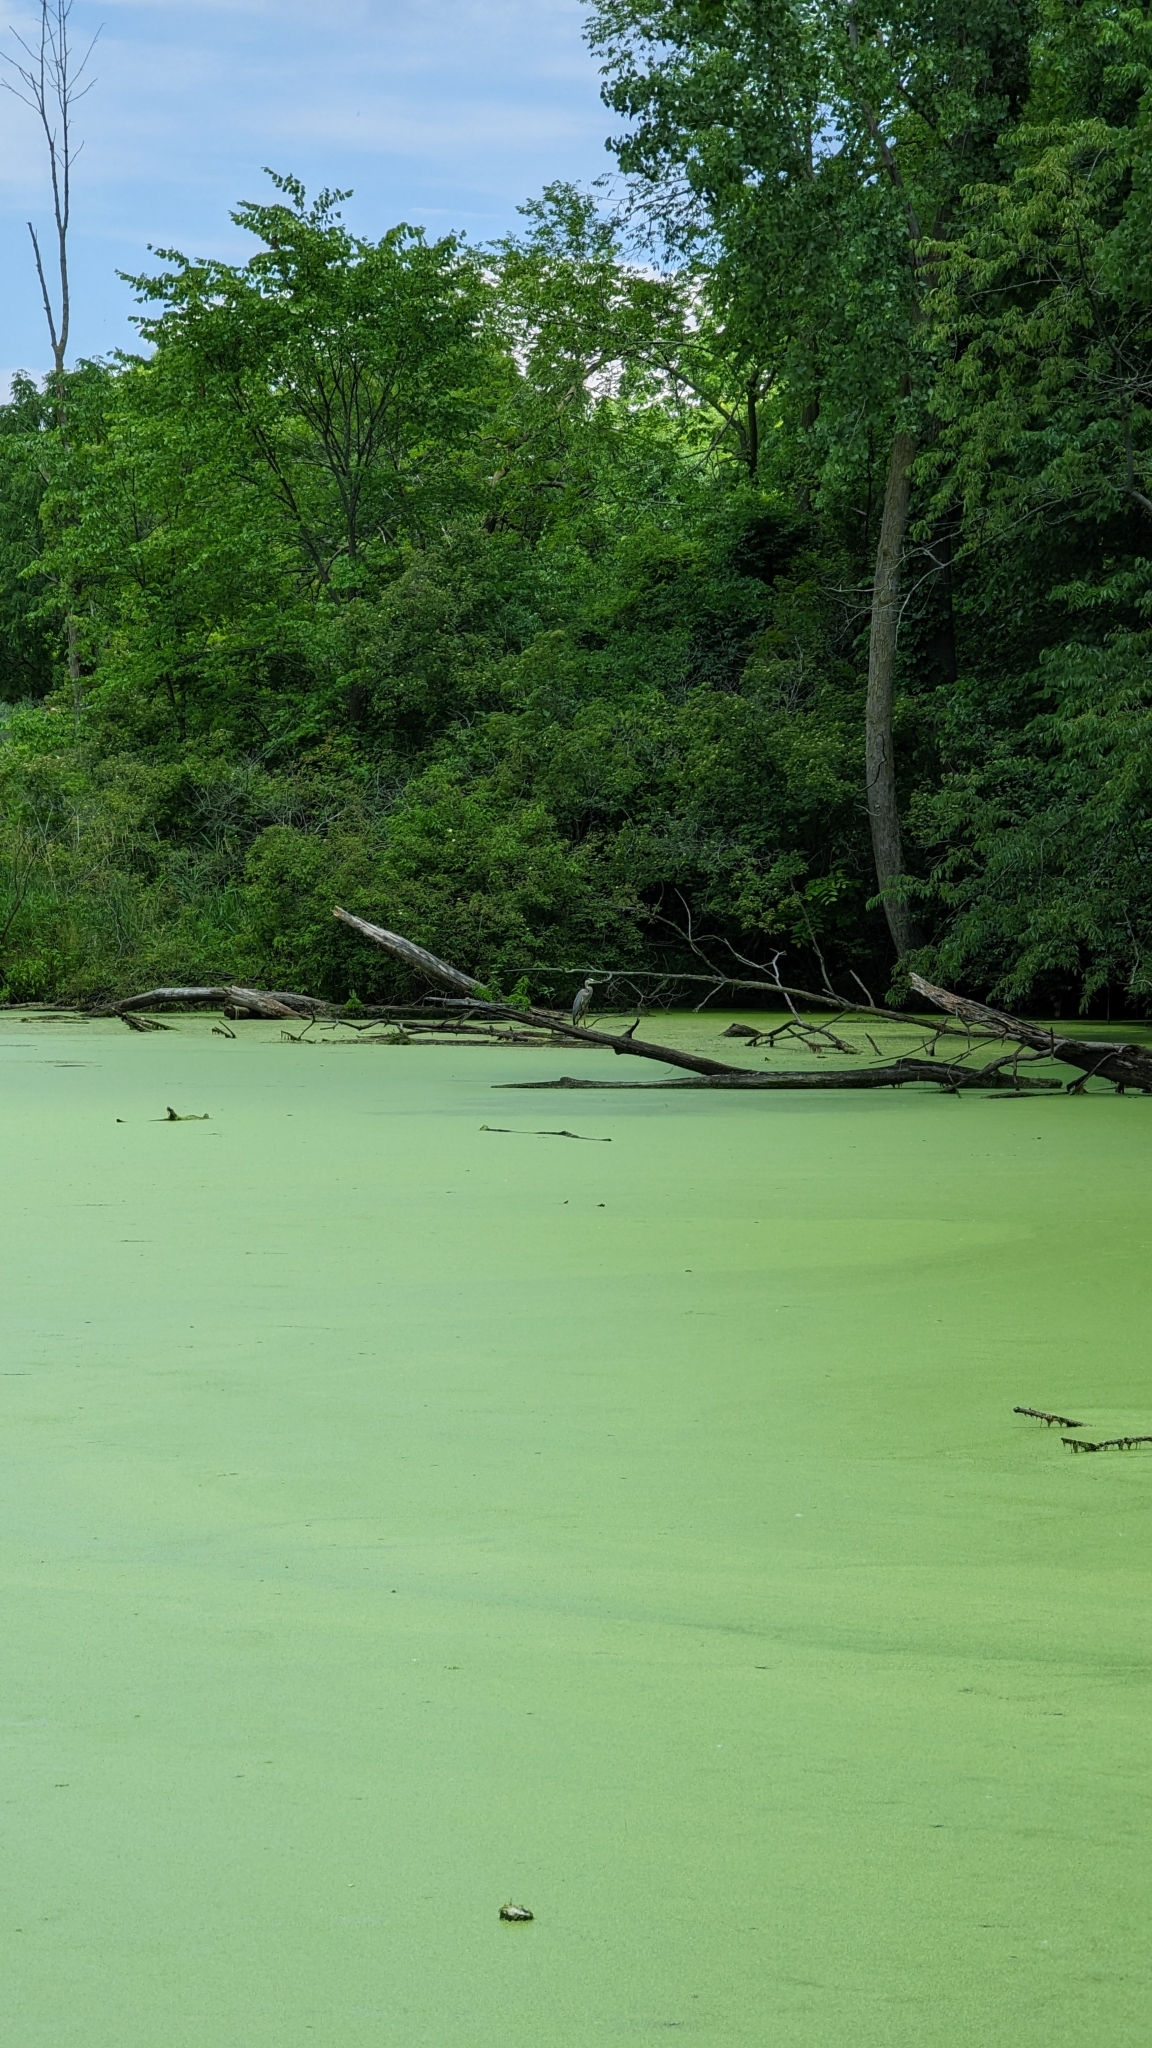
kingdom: Animalia
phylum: Chordata
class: Aves
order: Pelecaniformes
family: Ardeidae
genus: Ardea
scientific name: Ardea herodias
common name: Great blue heron
